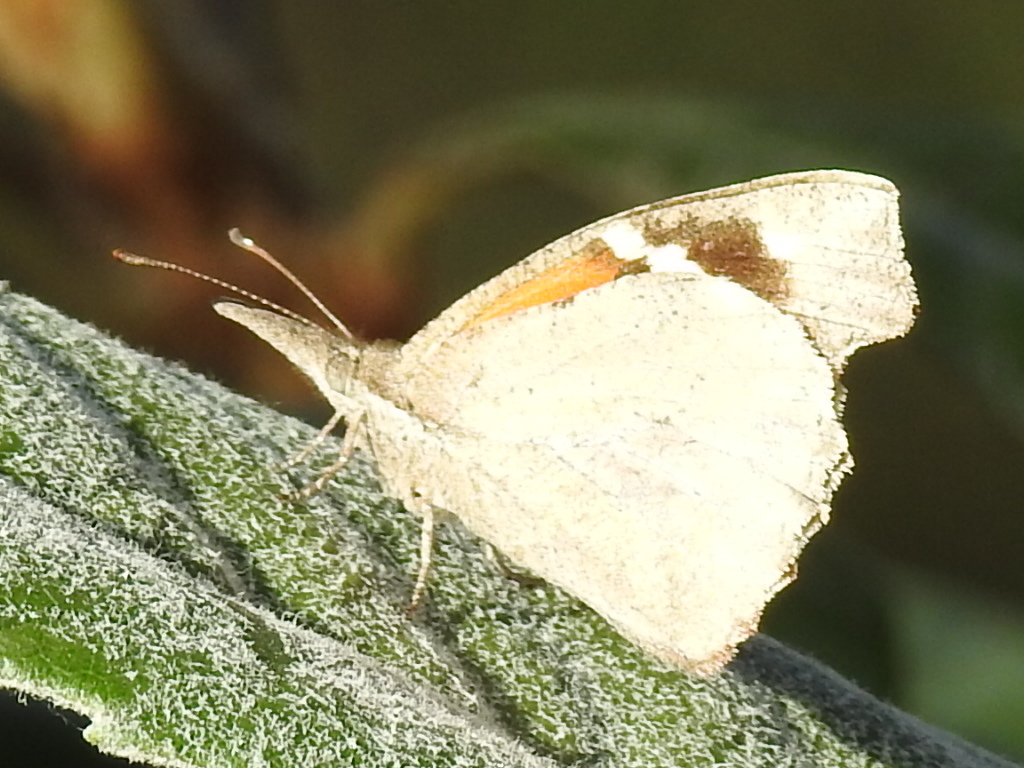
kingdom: Animalia
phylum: Arthropoda
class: Insecta
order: Lepidoptera
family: Nymphalidae
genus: Libytheana
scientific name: Libytheana carinenta
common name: American snout
